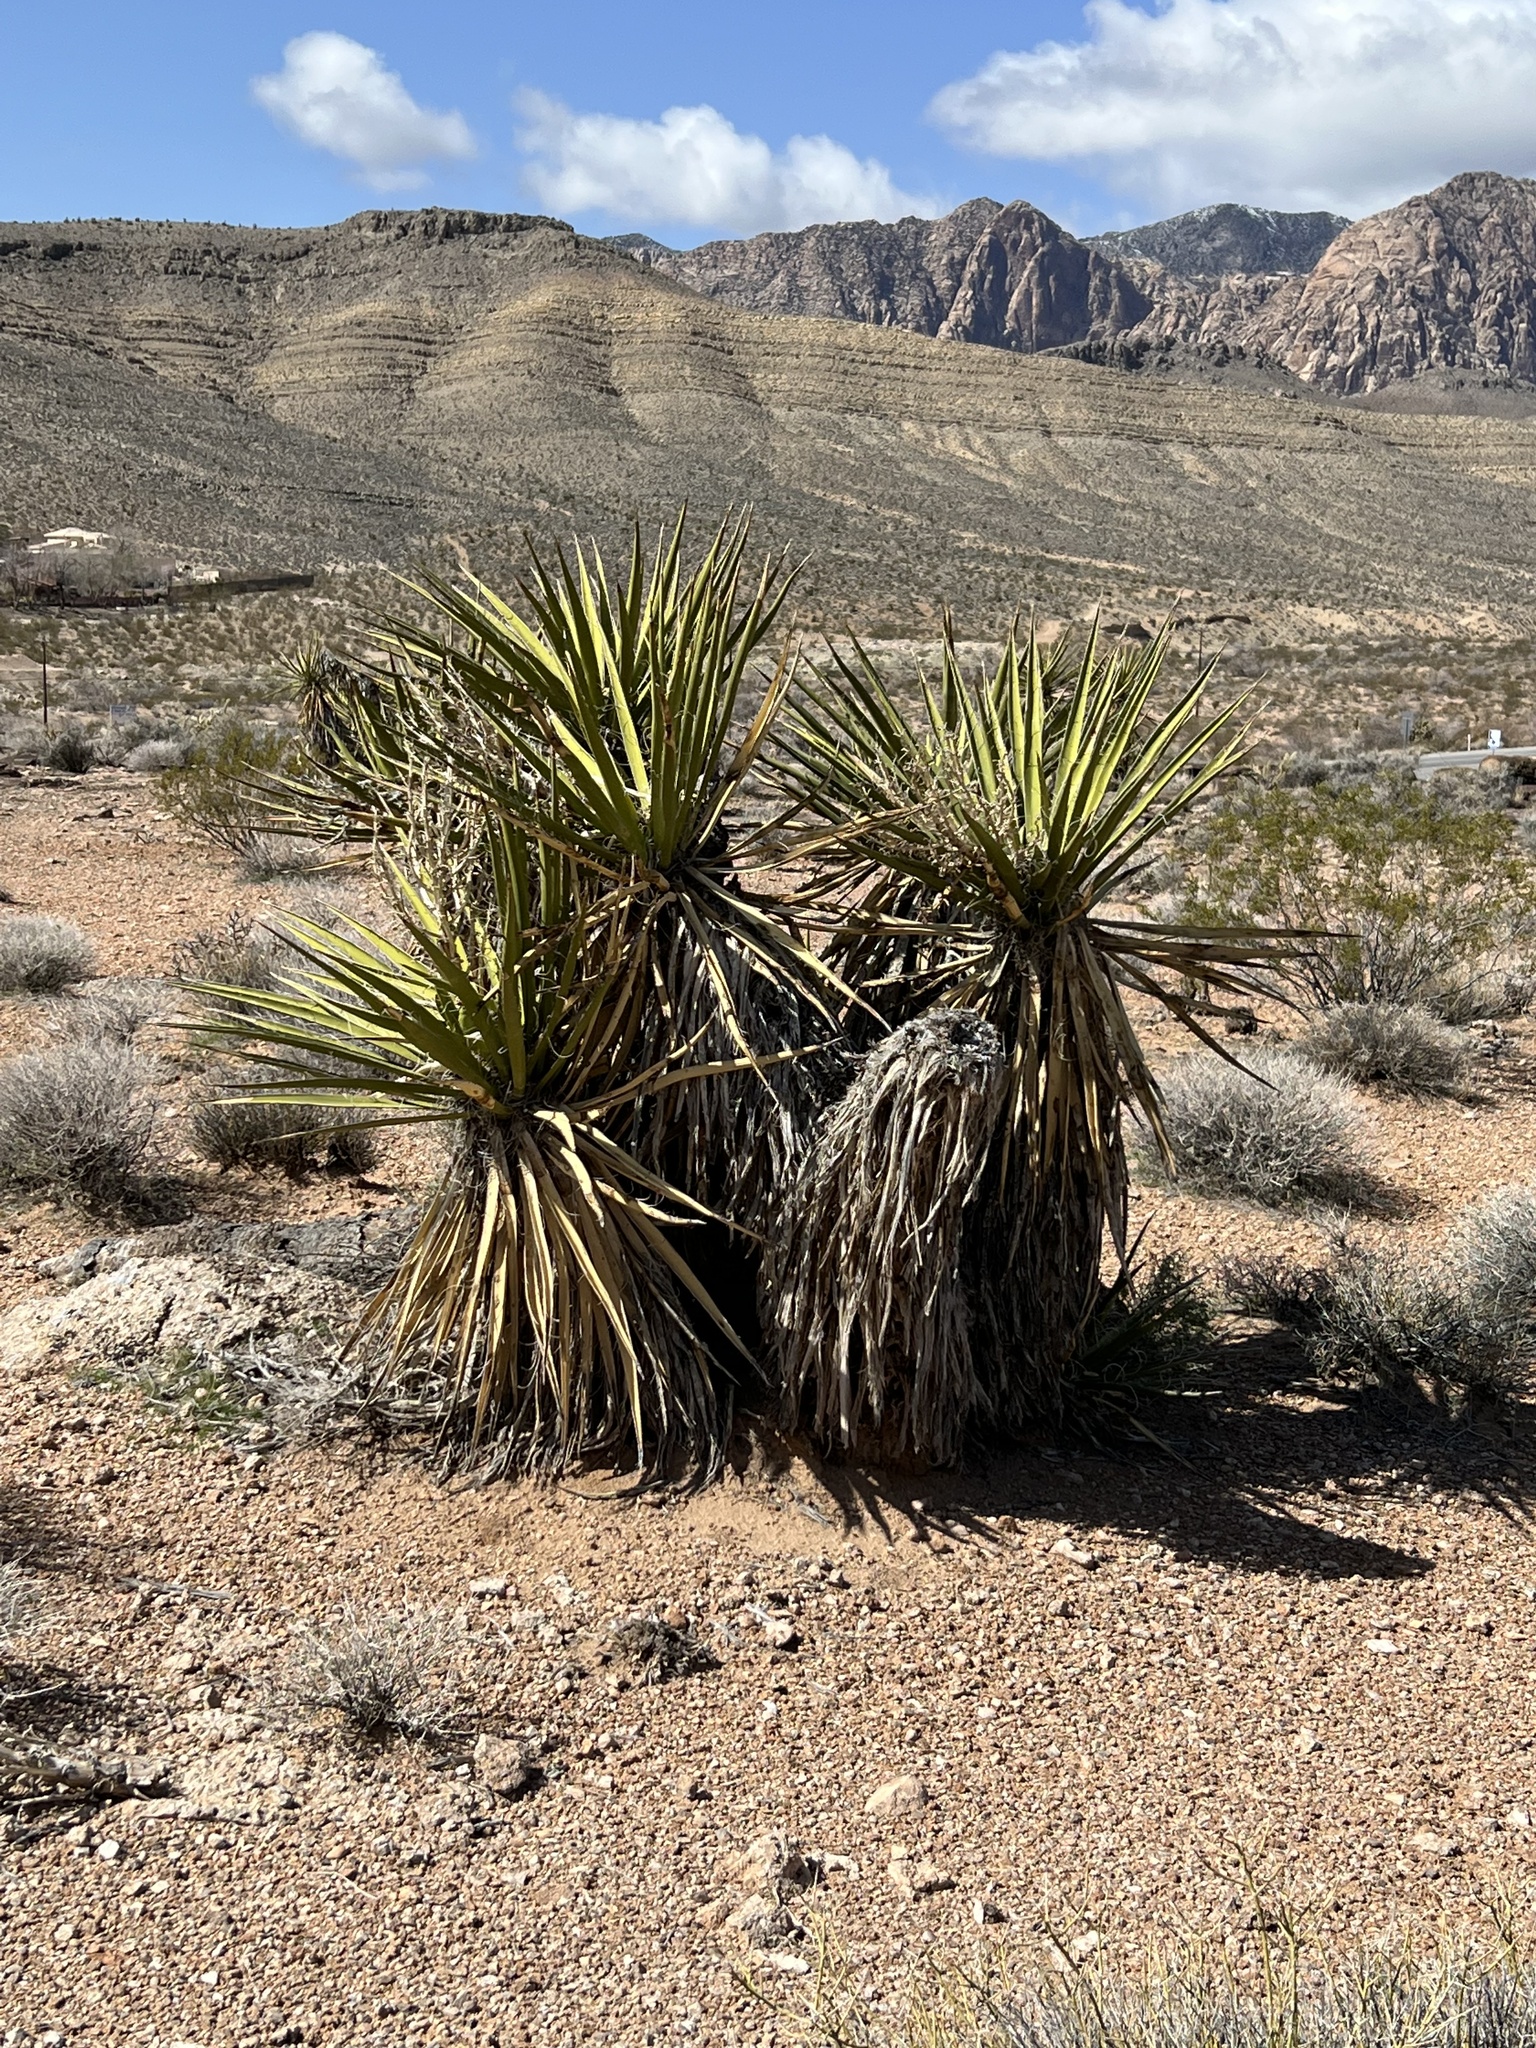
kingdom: Plantae
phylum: Tracheophyta
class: Liliopsida
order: Asparagales
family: Asparagaceae
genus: Yucca
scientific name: Yucca schidigera
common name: Mojave yucca
